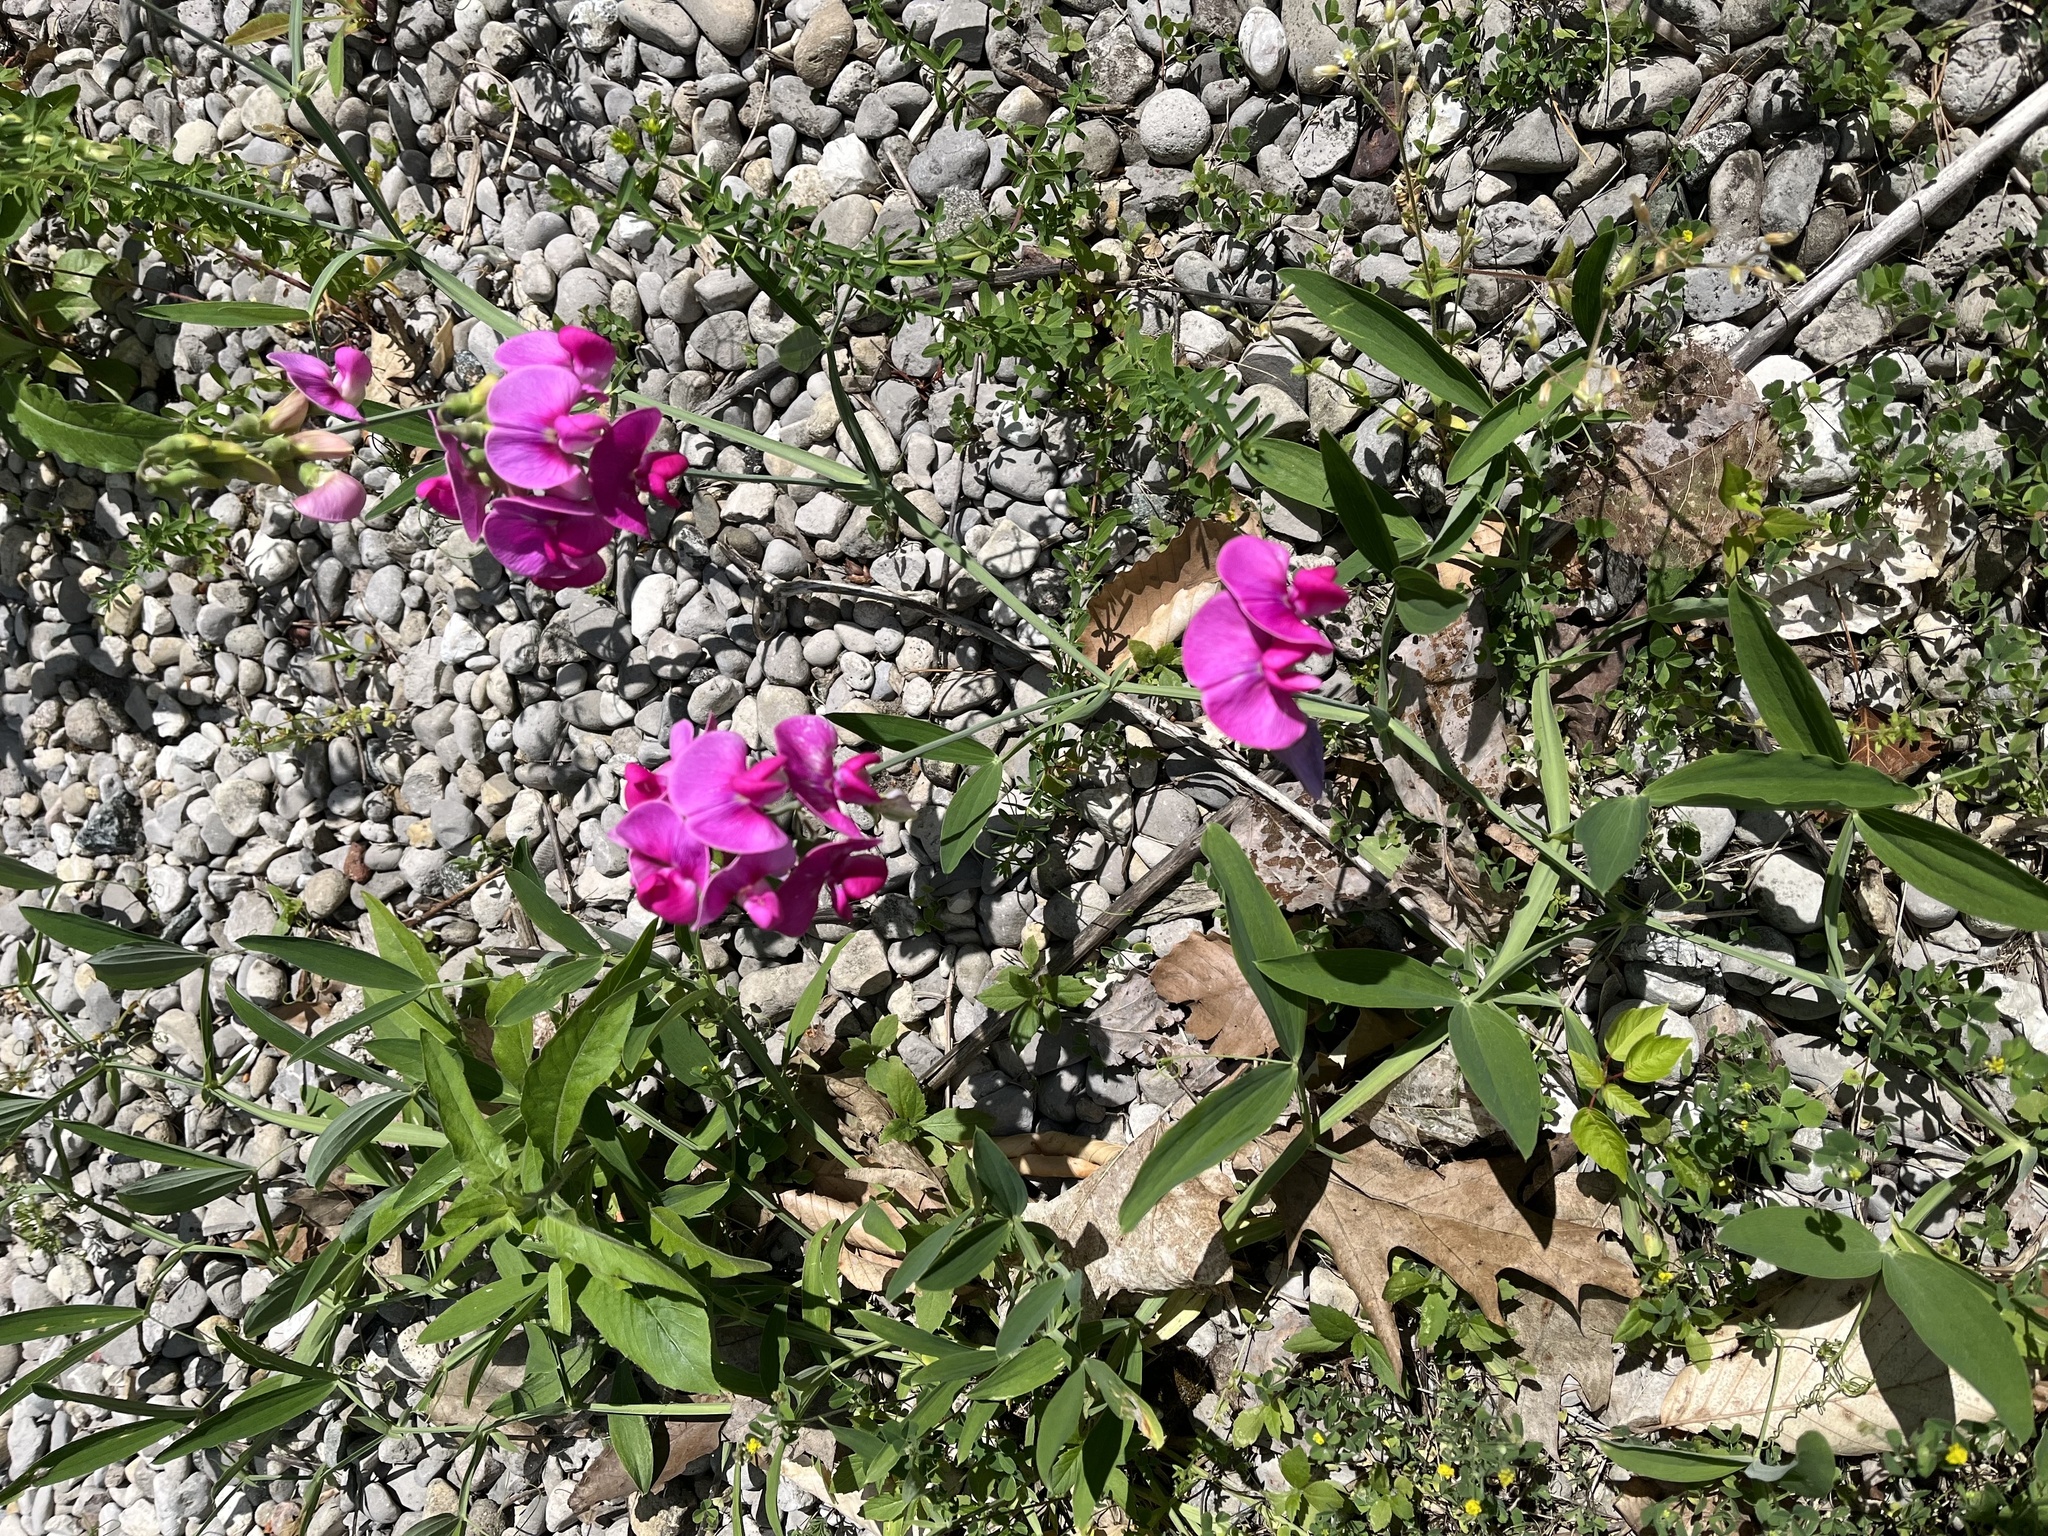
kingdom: Plantae
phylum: Tracheophyta
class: Magnoliopsida
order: Fabales
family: Fabaceae
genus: Lathyrus
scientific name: Lathyrus latifolius
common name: Perennial pea
